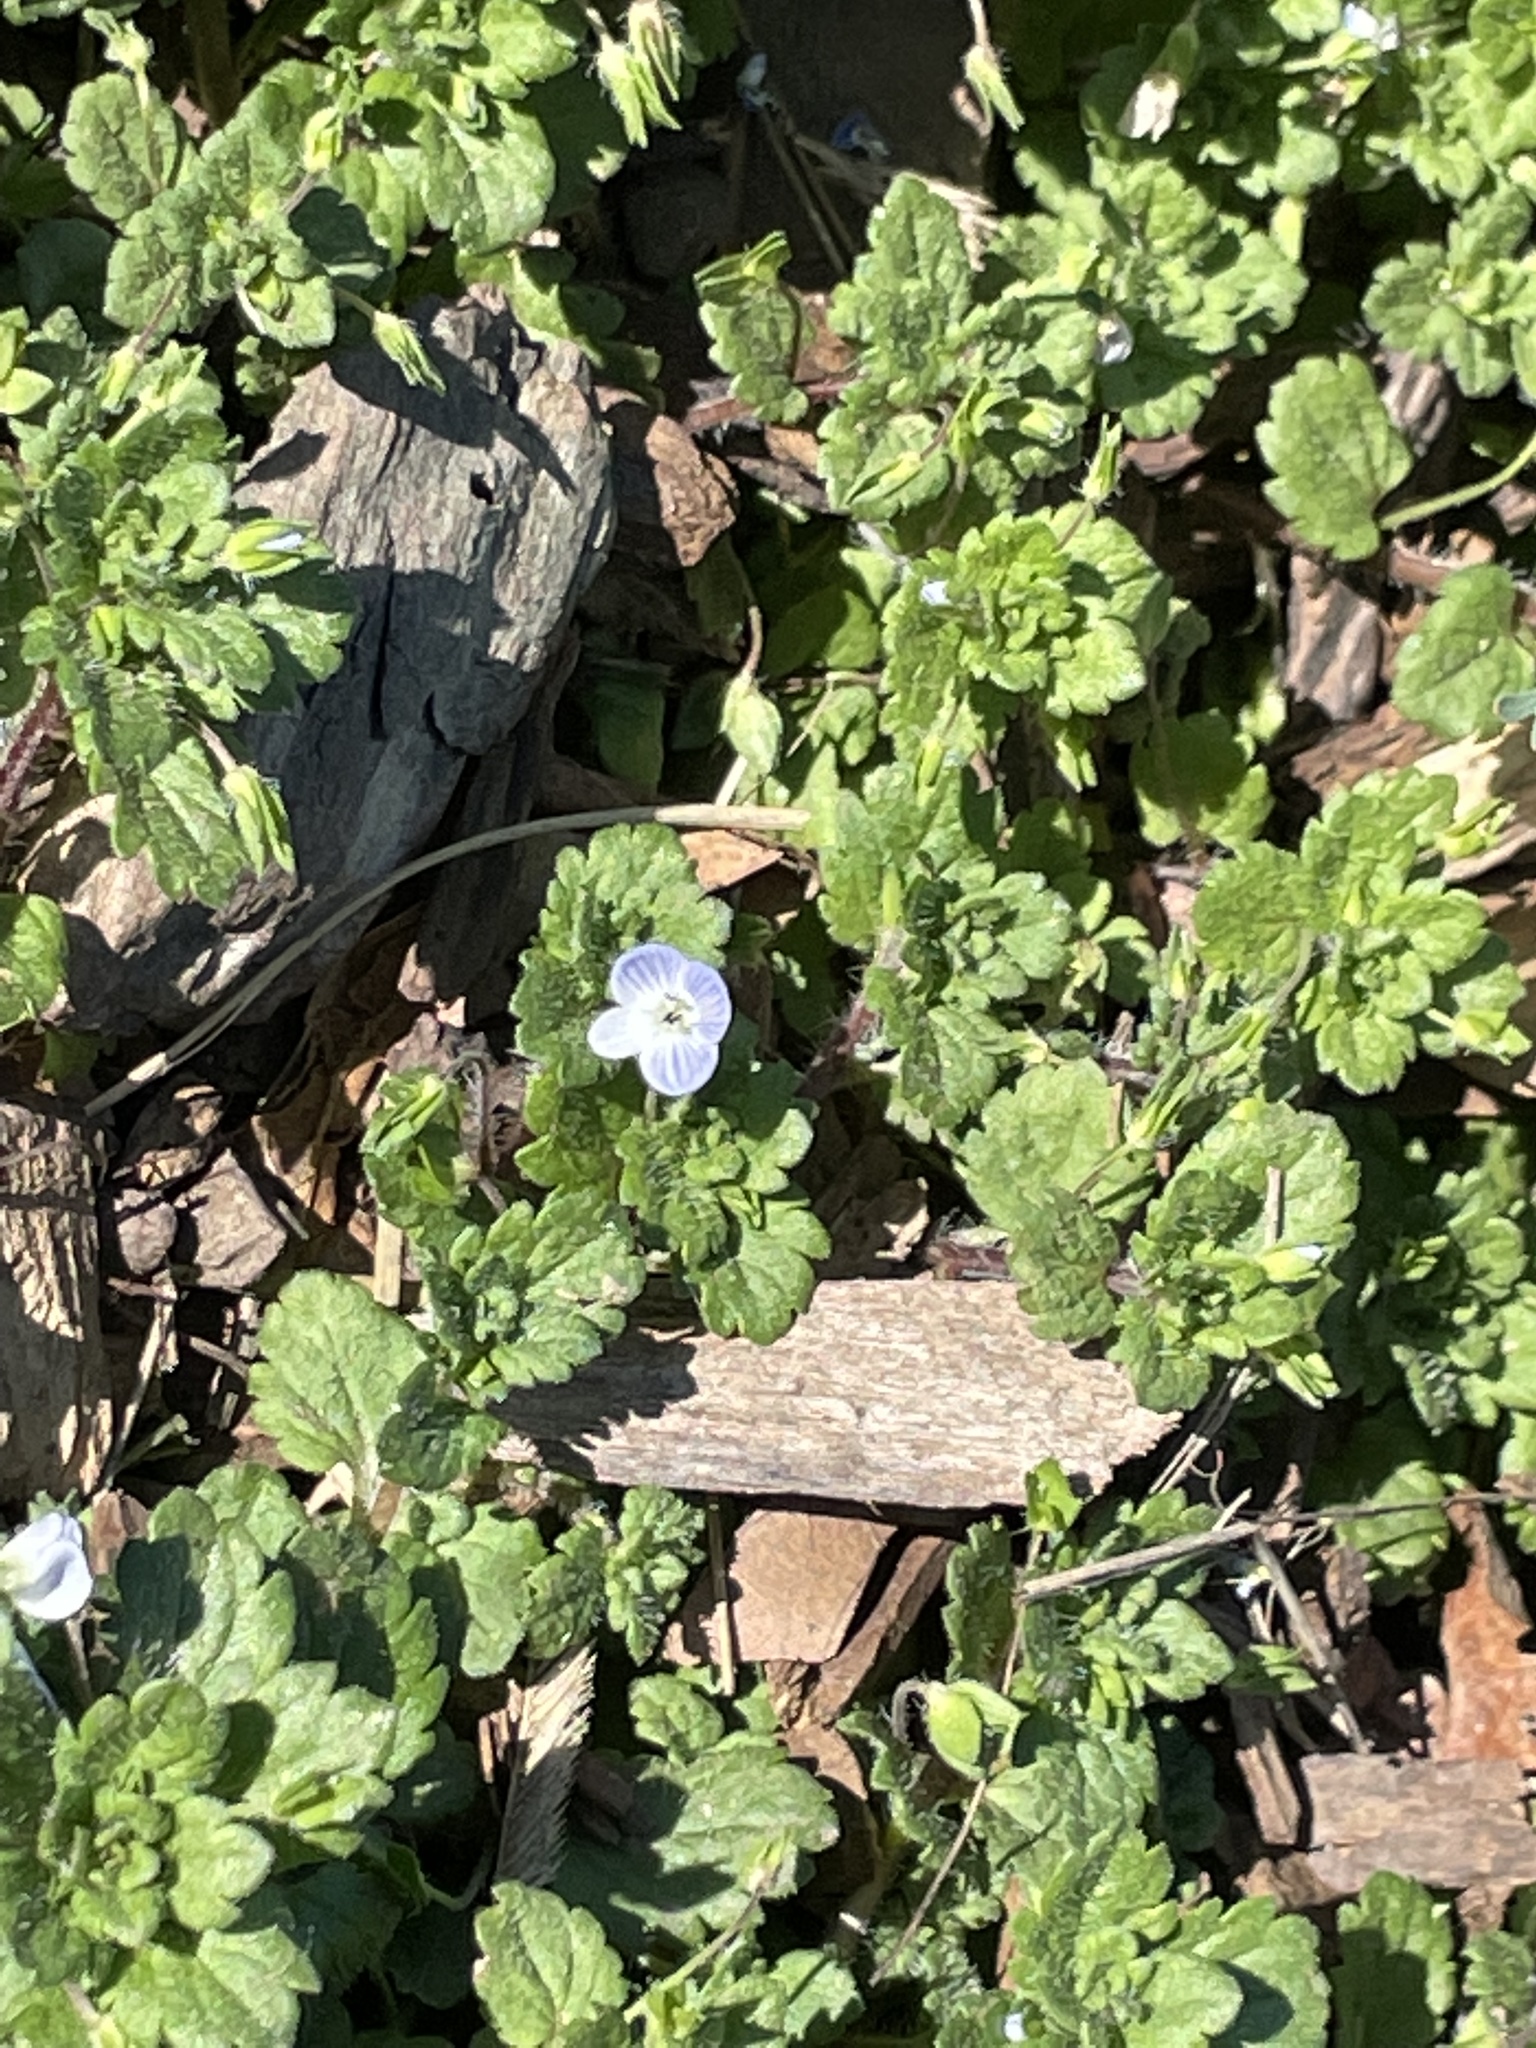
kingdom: Plantae
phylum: Tracheophyta
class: Magnoliopsida
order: Lamiales
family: Plantaginaceae
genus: Veronica
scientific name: Veronica persica
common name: Common field-speedwell
